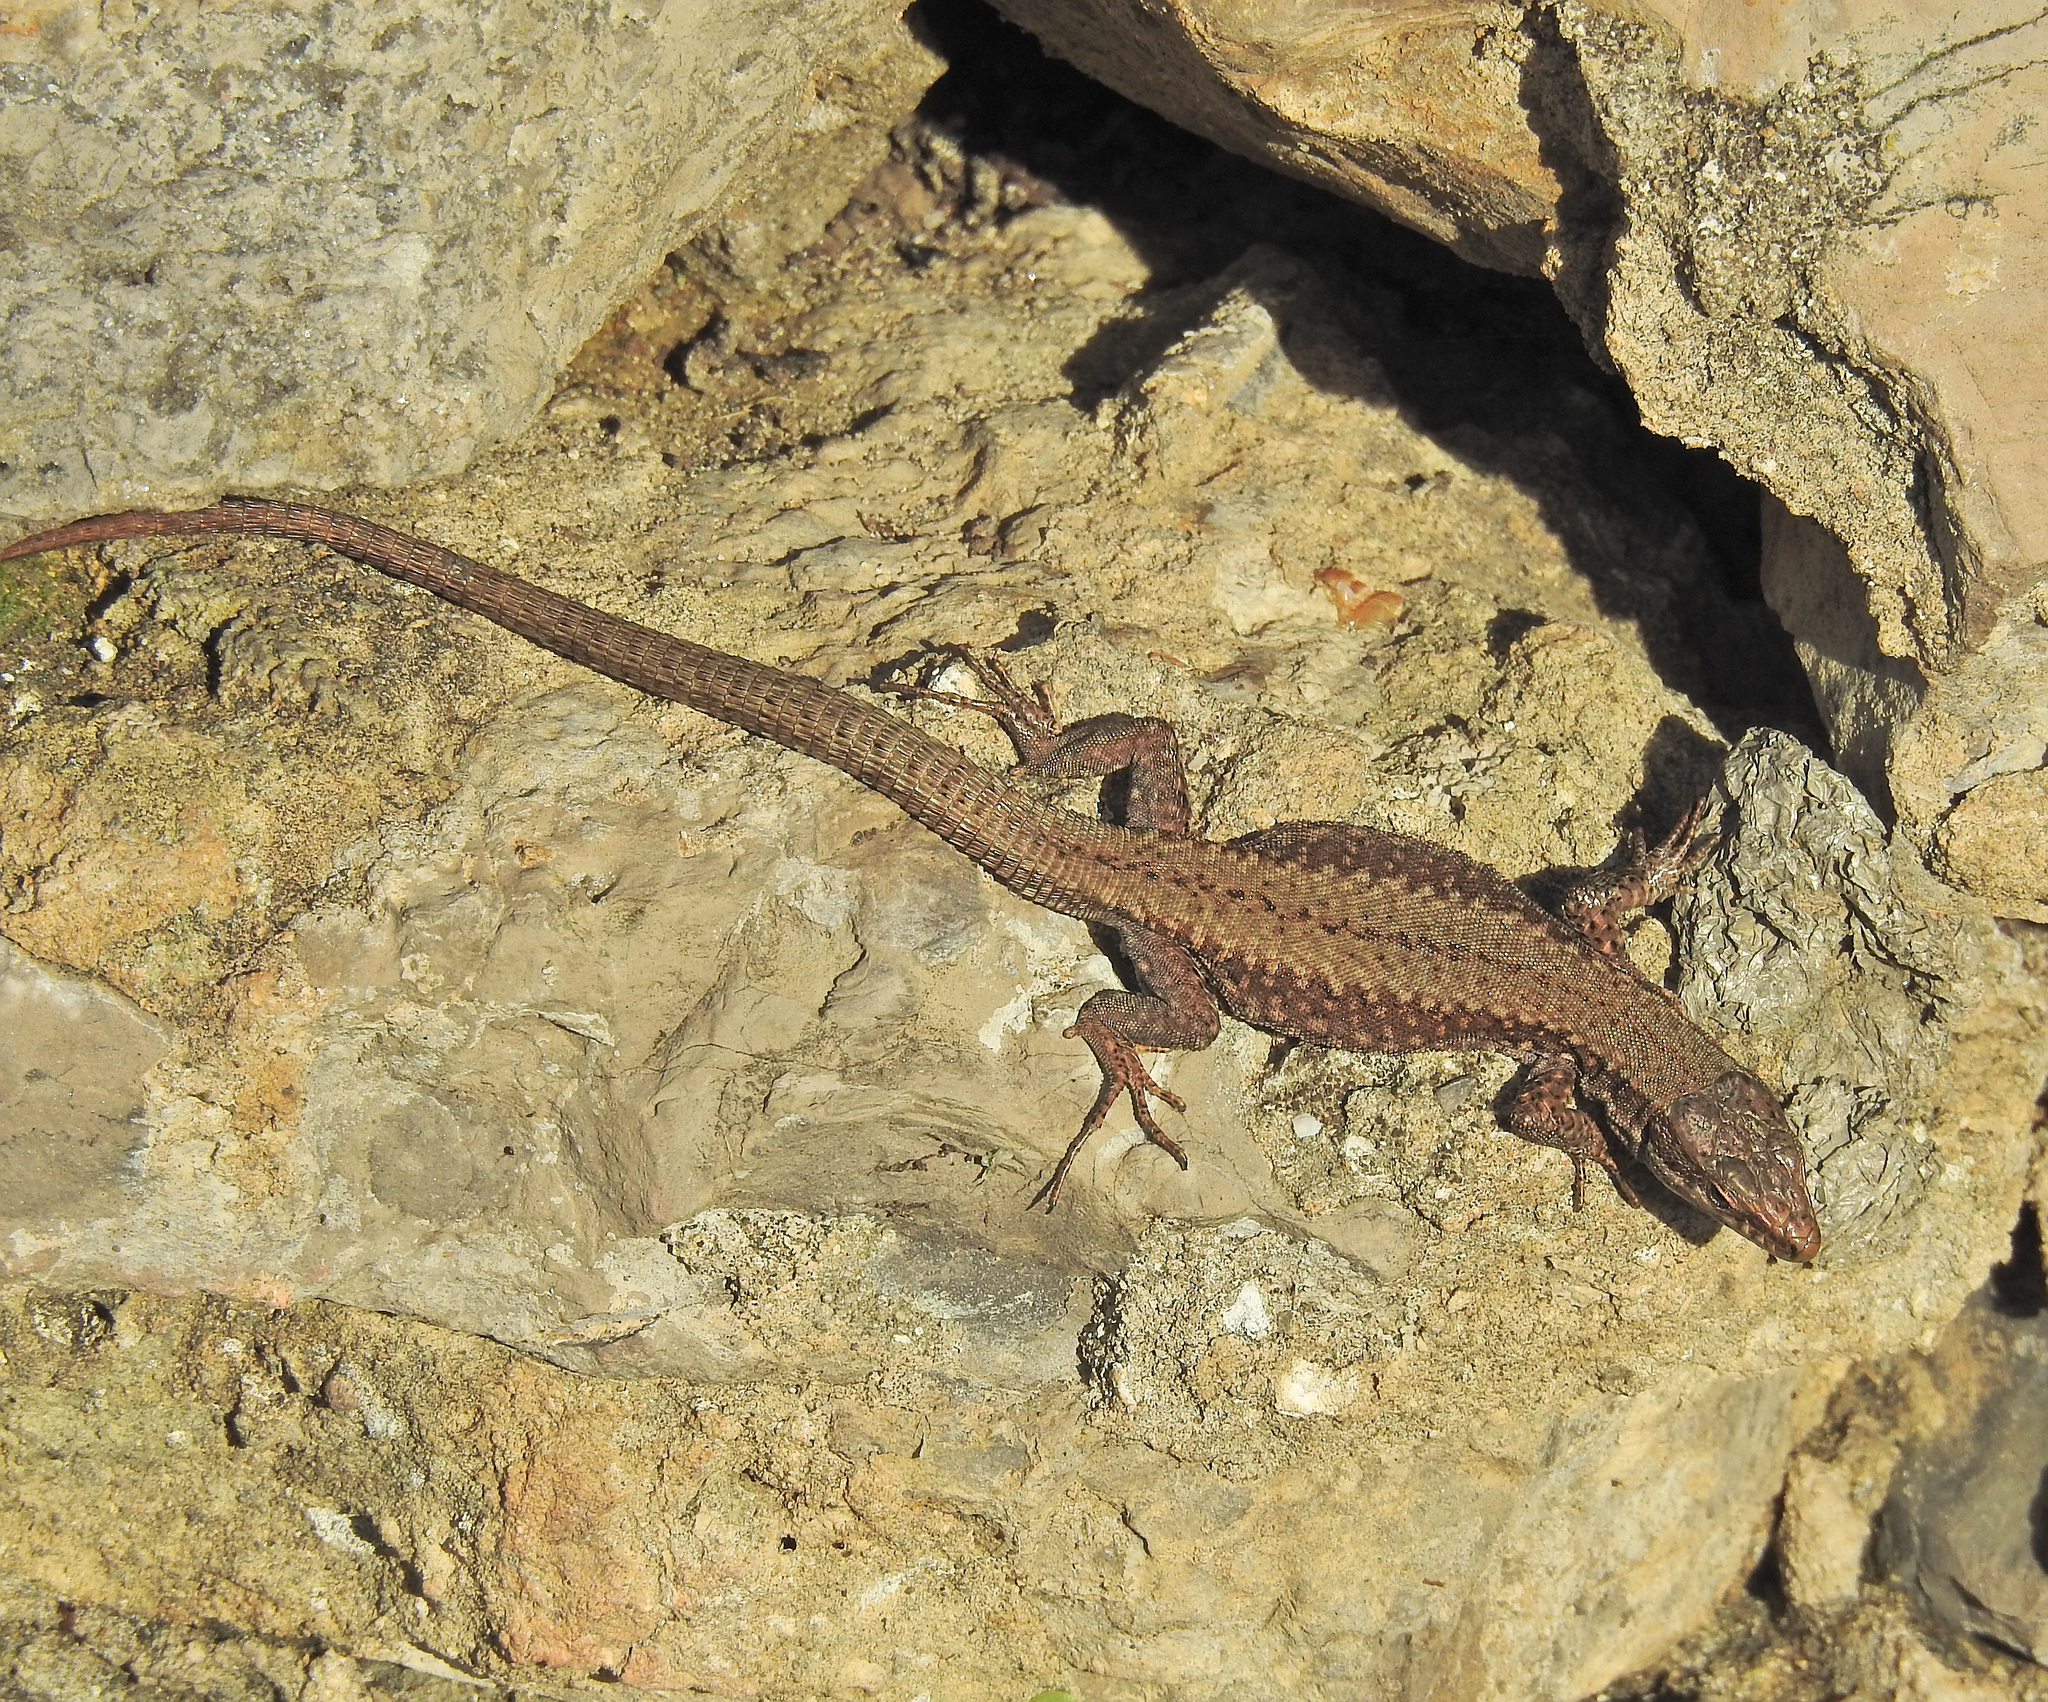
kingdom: Animalia
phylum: Chordata
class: Squamata
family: Lacertidae
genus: Podarcis
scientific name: Podarcis muralis
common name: Common wall lizard
